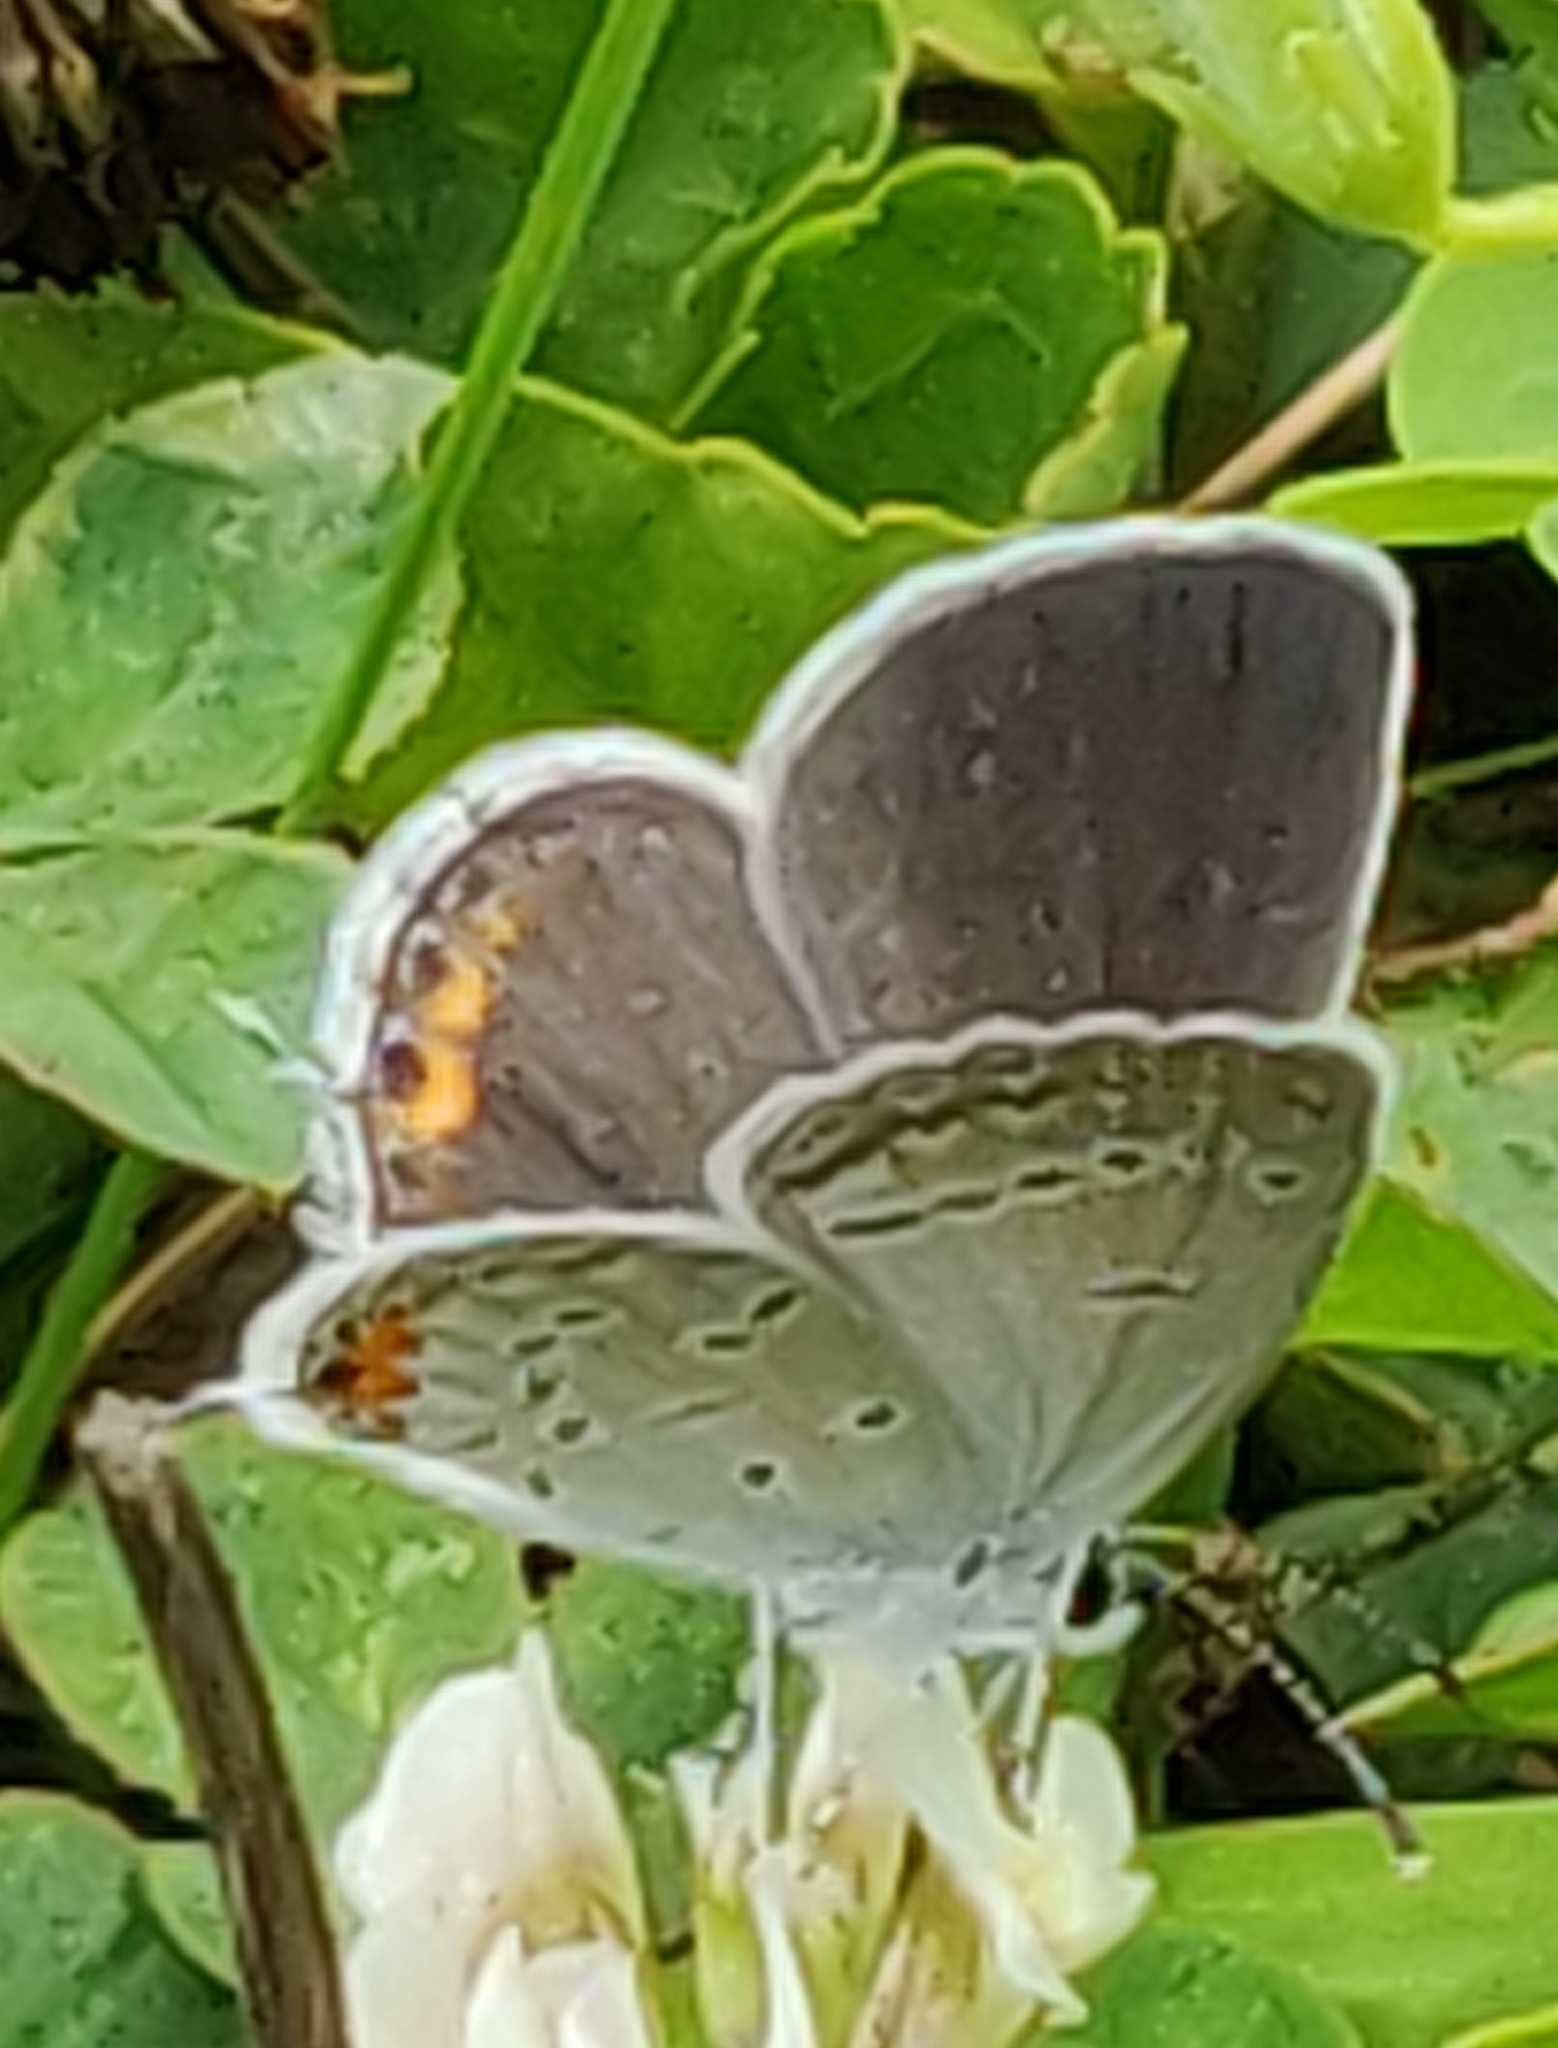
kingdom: Animalia
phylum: Arthropoda
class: Insecta
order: Lepidoptera
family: Lycaenidae
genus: Elkalyce
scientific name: Elkalyce comyntas
